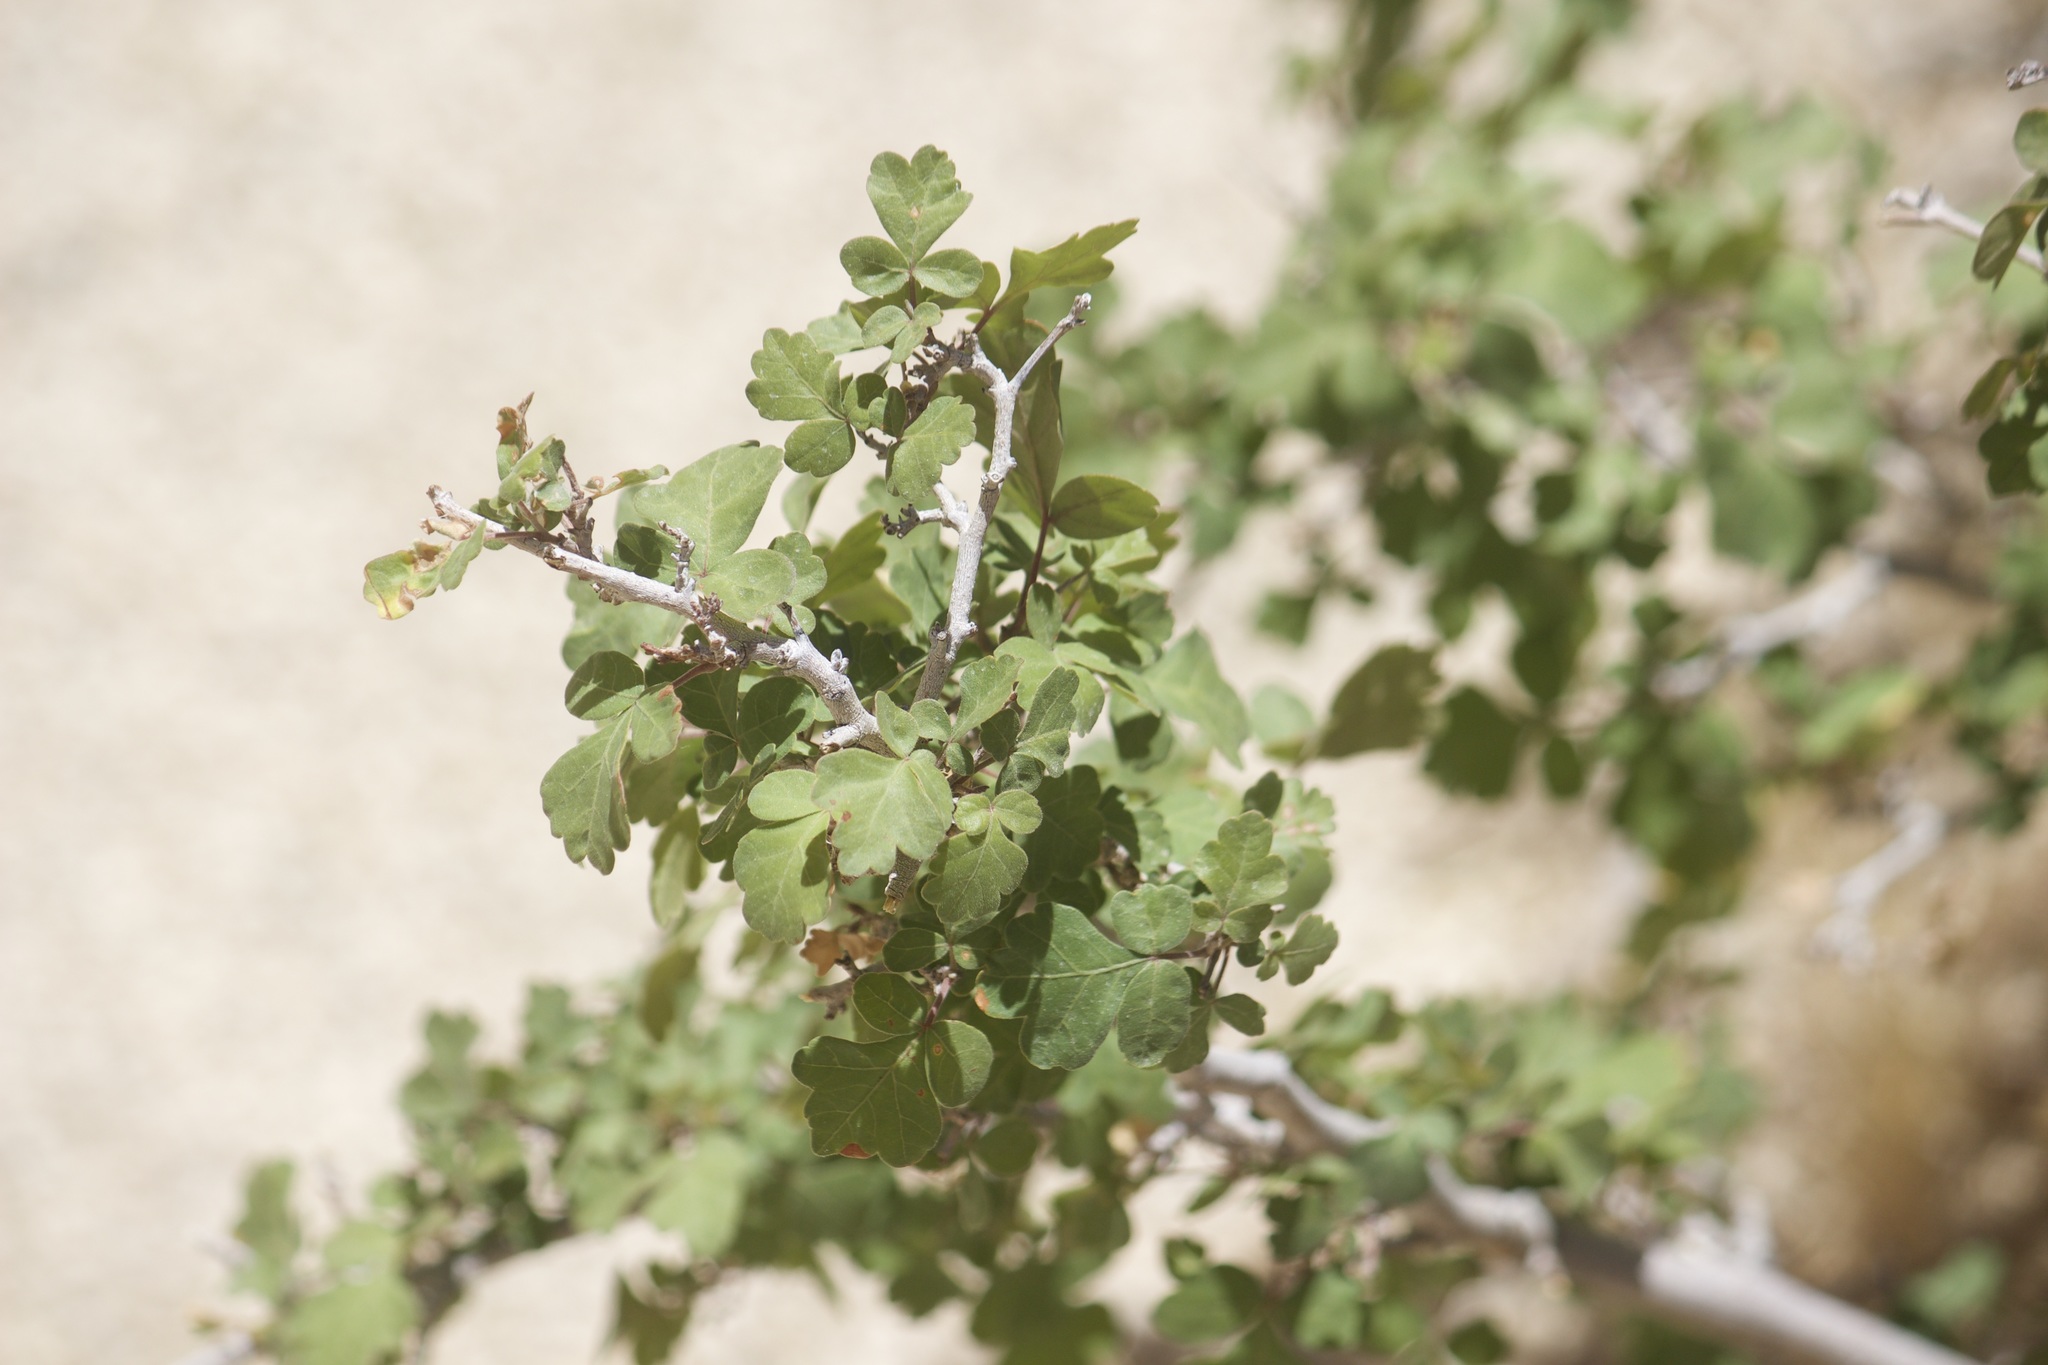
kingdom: Plantae
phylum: Tracheophyta
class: Magnoliopsida
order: Sapindales
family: Anacardiaceae
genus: Rhus
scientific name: Rhus aromatica
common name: Aromatic sumac
